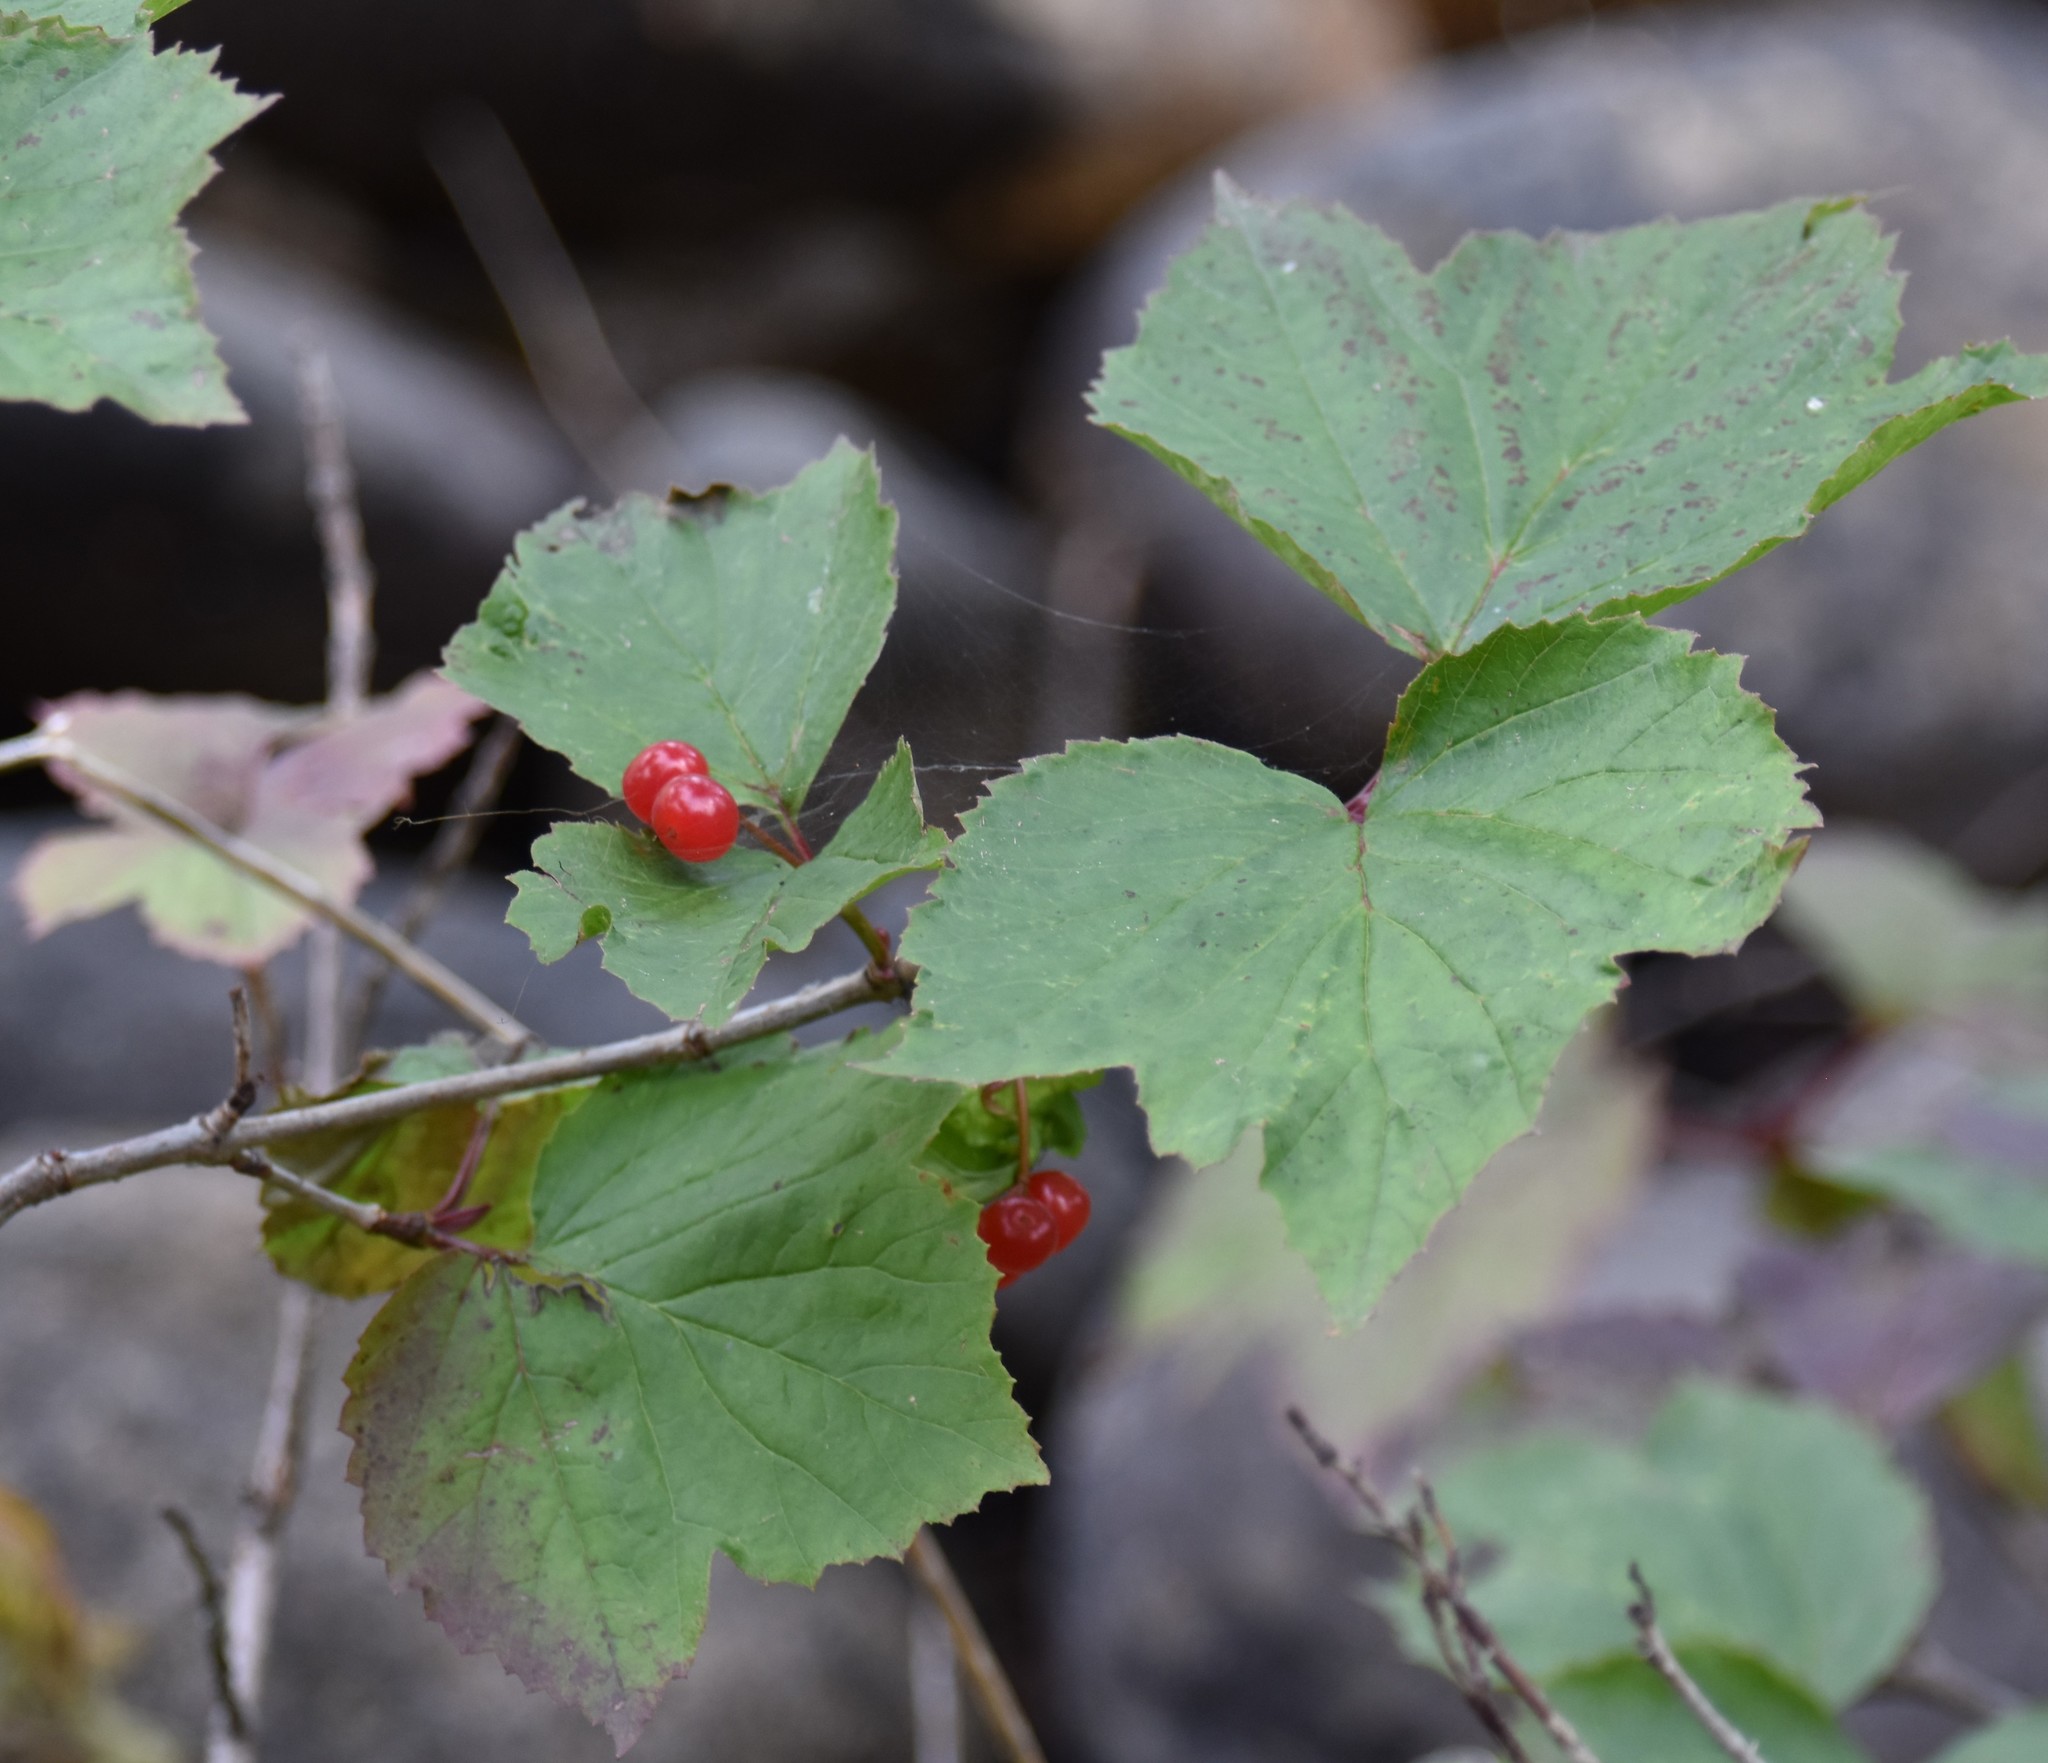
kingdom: Plantae
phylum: Tracheophyta
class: Magnoliopsida
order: Dipsacales
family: Viburnaceae
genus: Viburnum
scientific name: Viburnum edule
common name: Mooseberry
